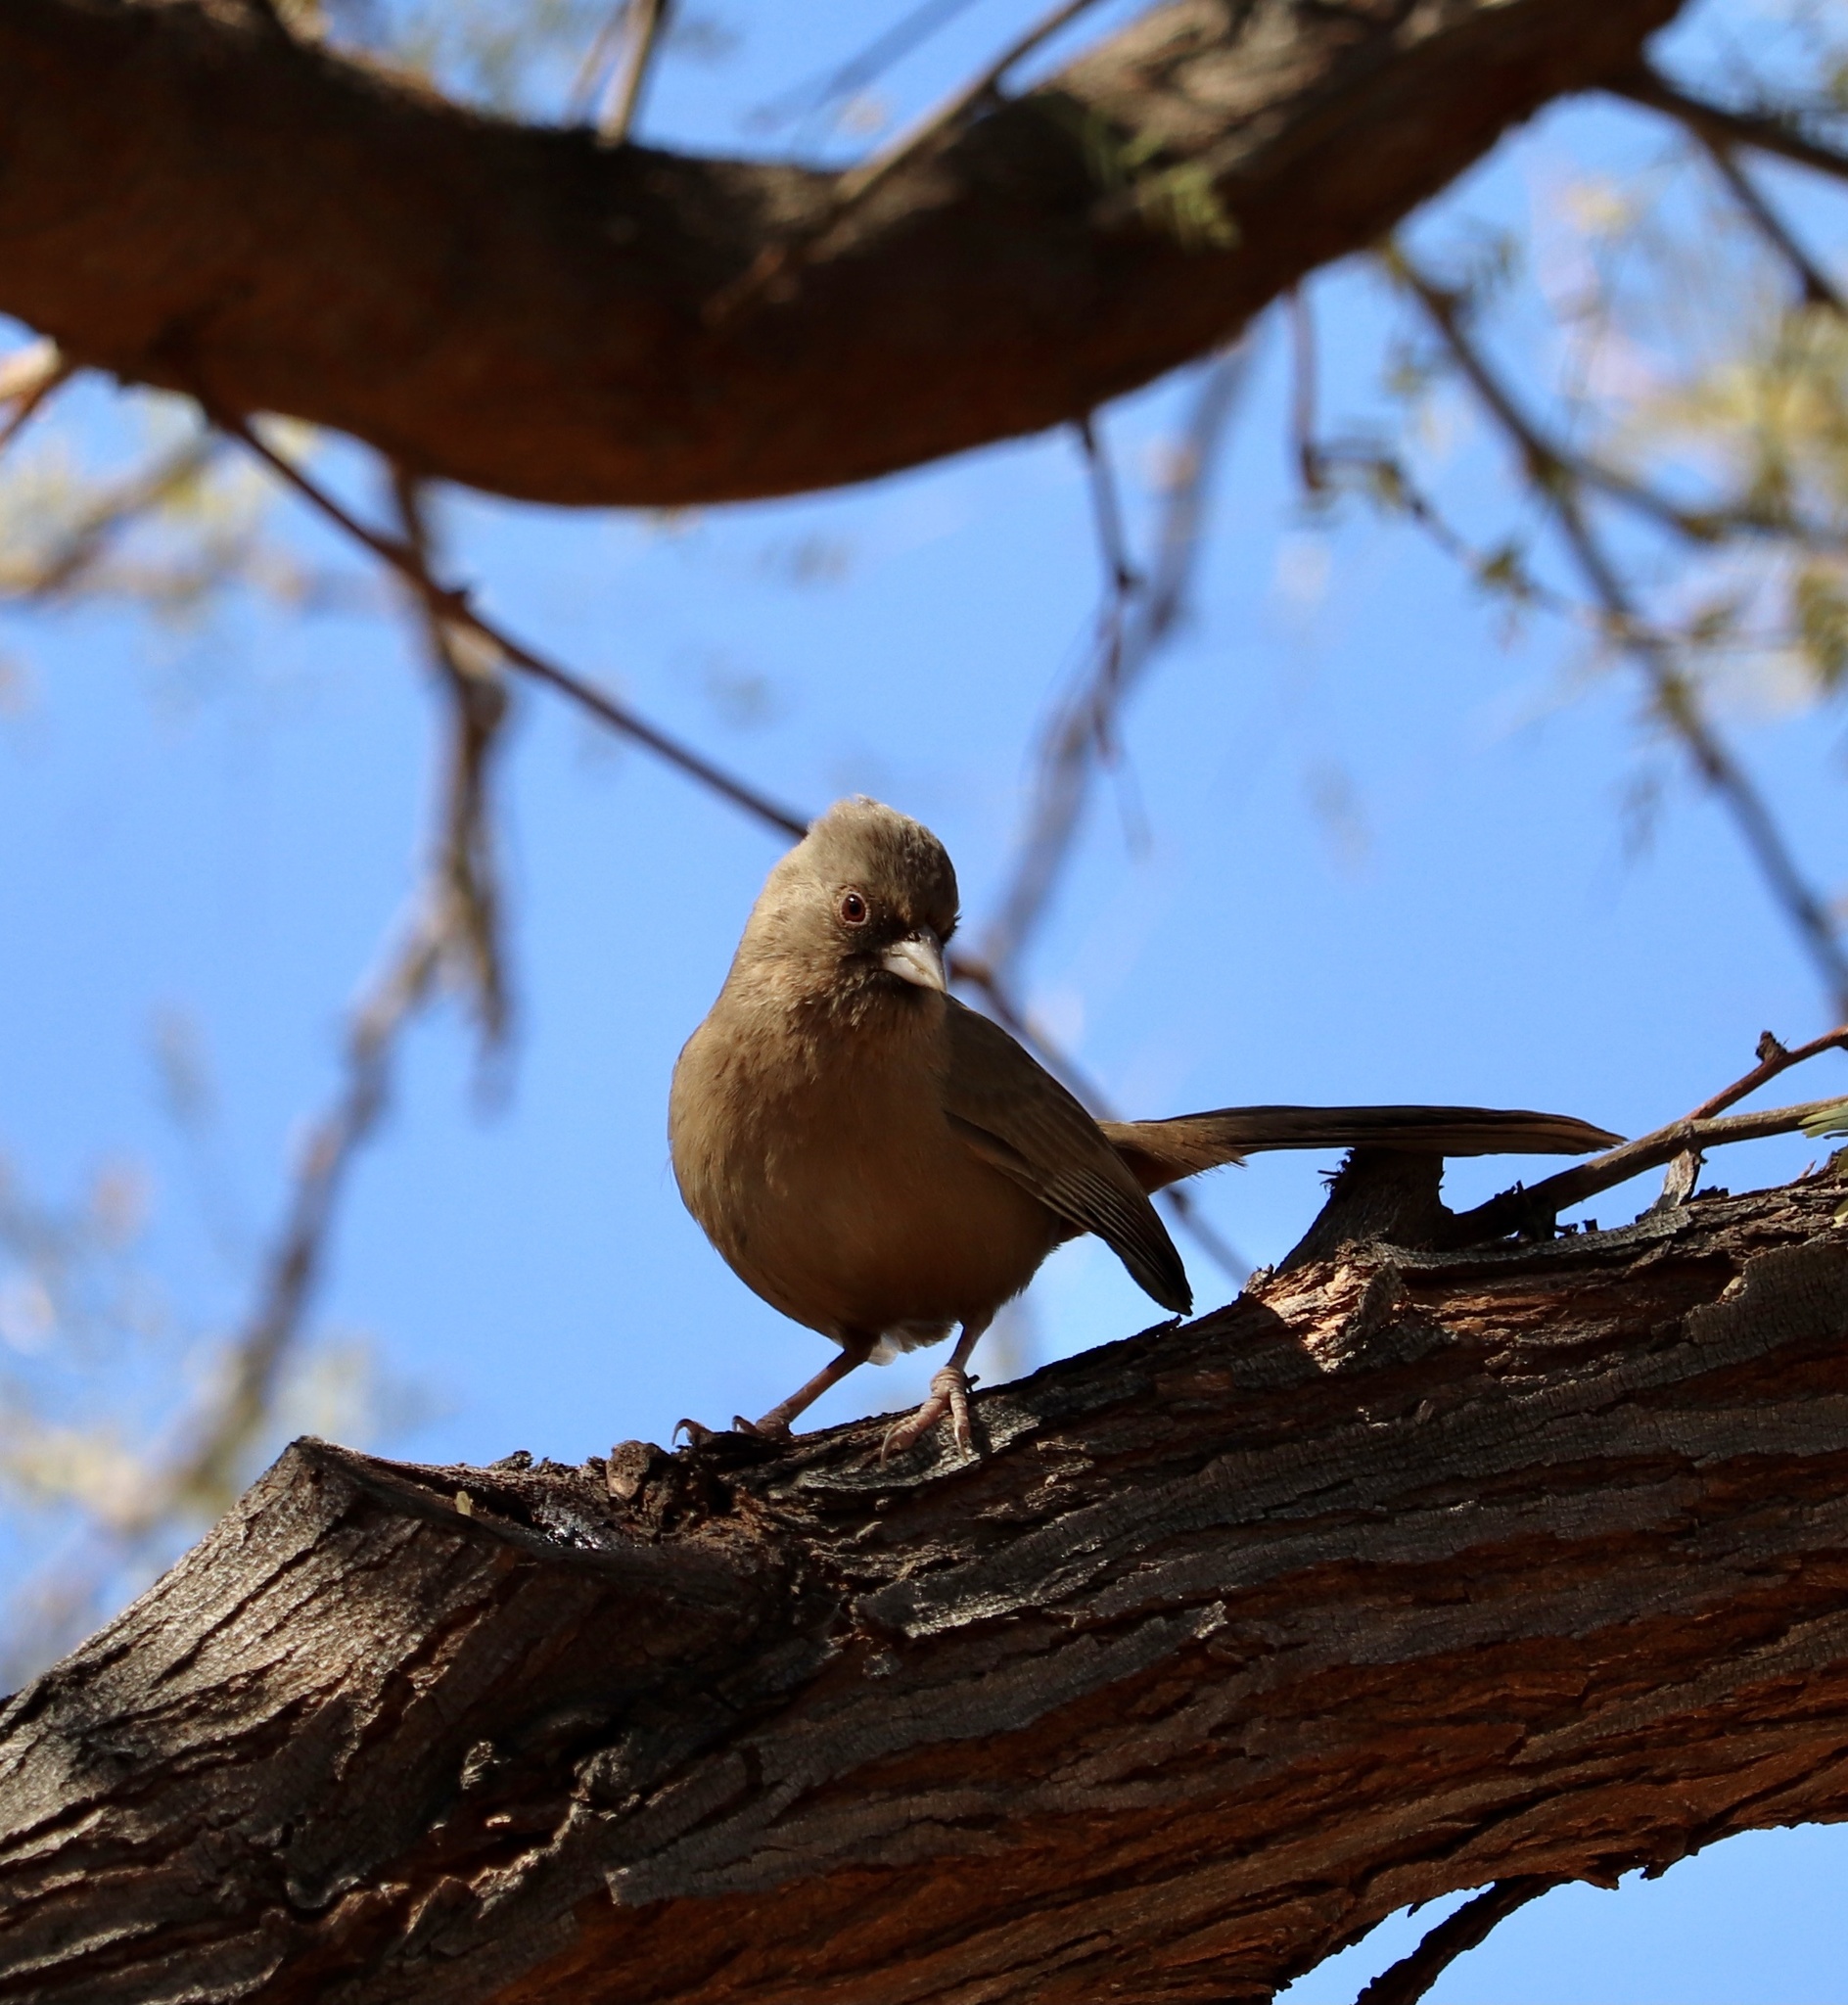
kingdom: Animalia
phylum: Chordata
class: Aves
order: Passeriformes
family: Passerellidae
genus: Melozone
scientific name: Melozone aberti
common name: Abert's towhee
